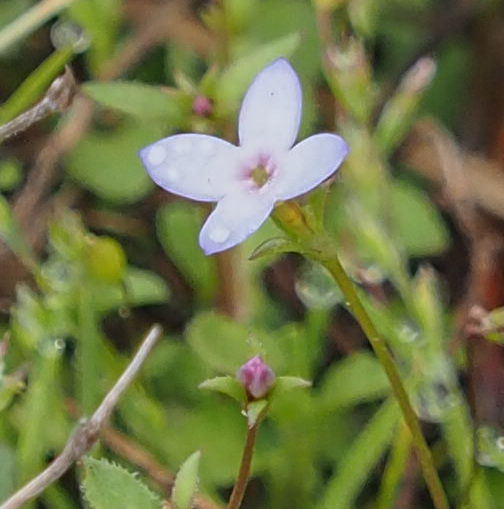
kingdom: Plantae
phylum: Tracheophyta
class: Magnoliopsida
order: Gentianales
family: Rubiaceae
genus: Houstonia
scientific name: Houstonia pusilla
